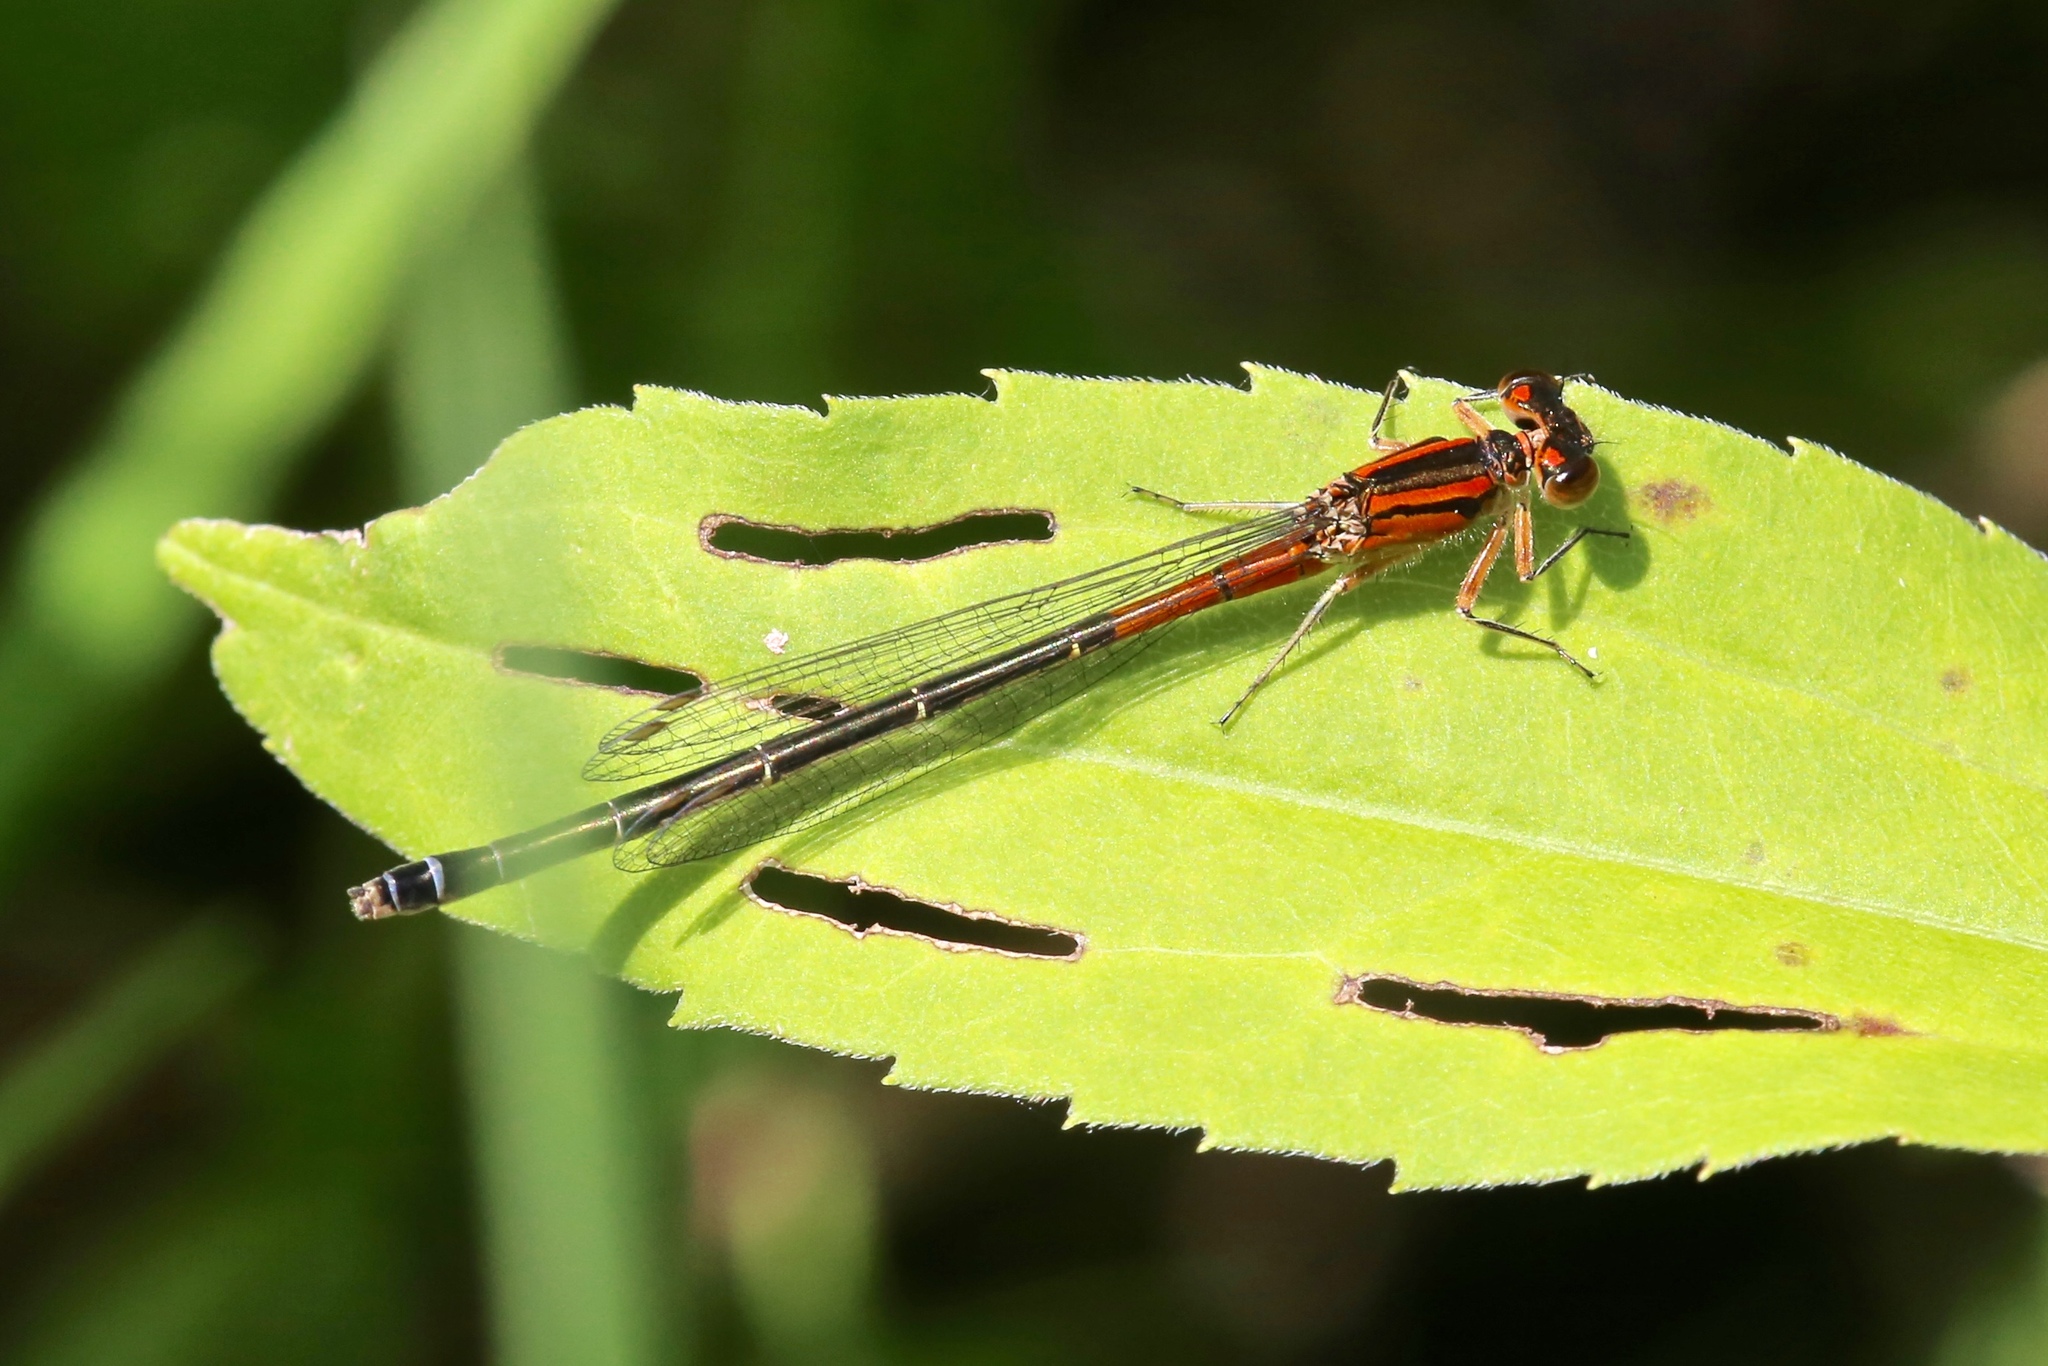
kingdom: Animalia
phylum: Arthropoda
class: Insecta
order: Odonata
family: Coenagrionidae
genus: Ischnura
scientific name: Ischnura verticalis
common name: Eastern forktail
